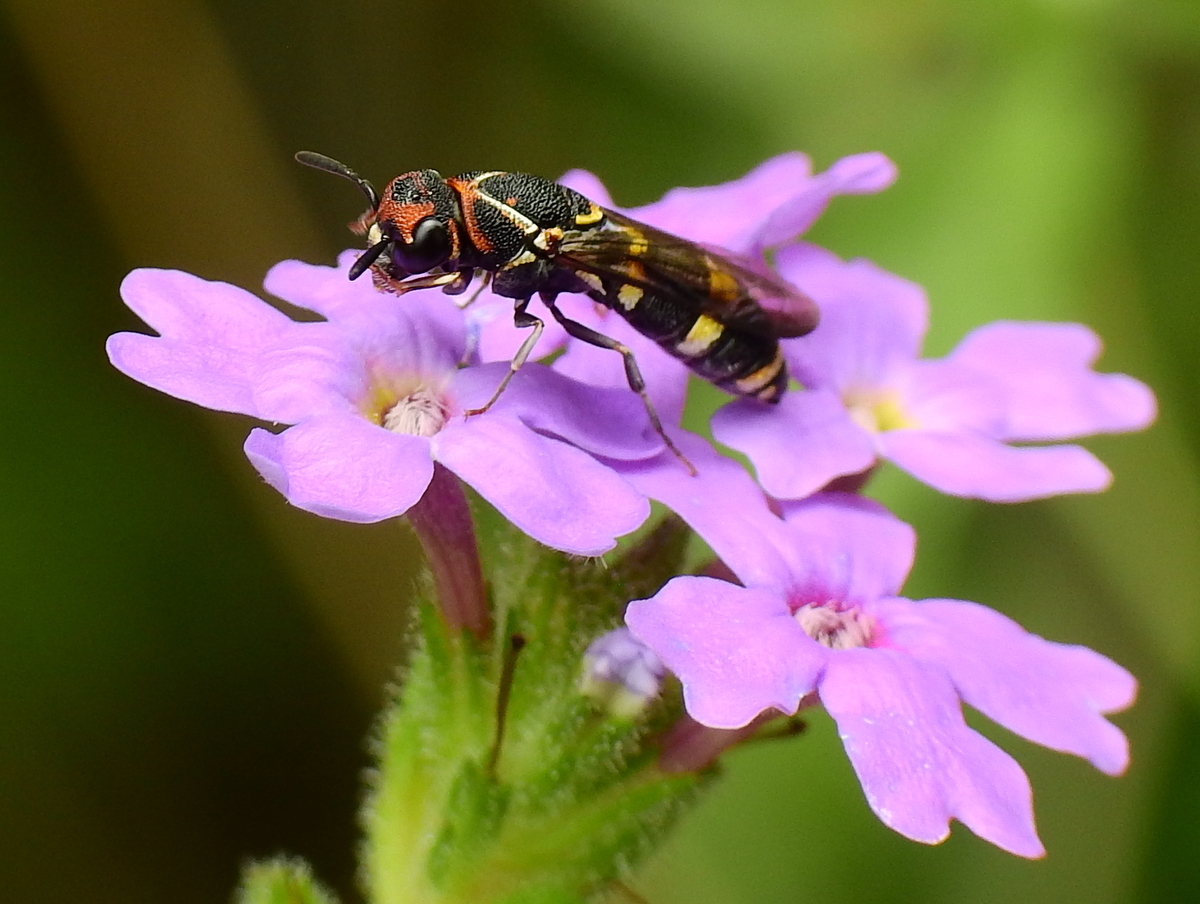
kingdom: Animalia
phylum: Arthropoda
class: Insecta
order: Hymenoptera
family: Masaridae
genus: Trimeria
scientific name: Trimeria rachiphora
